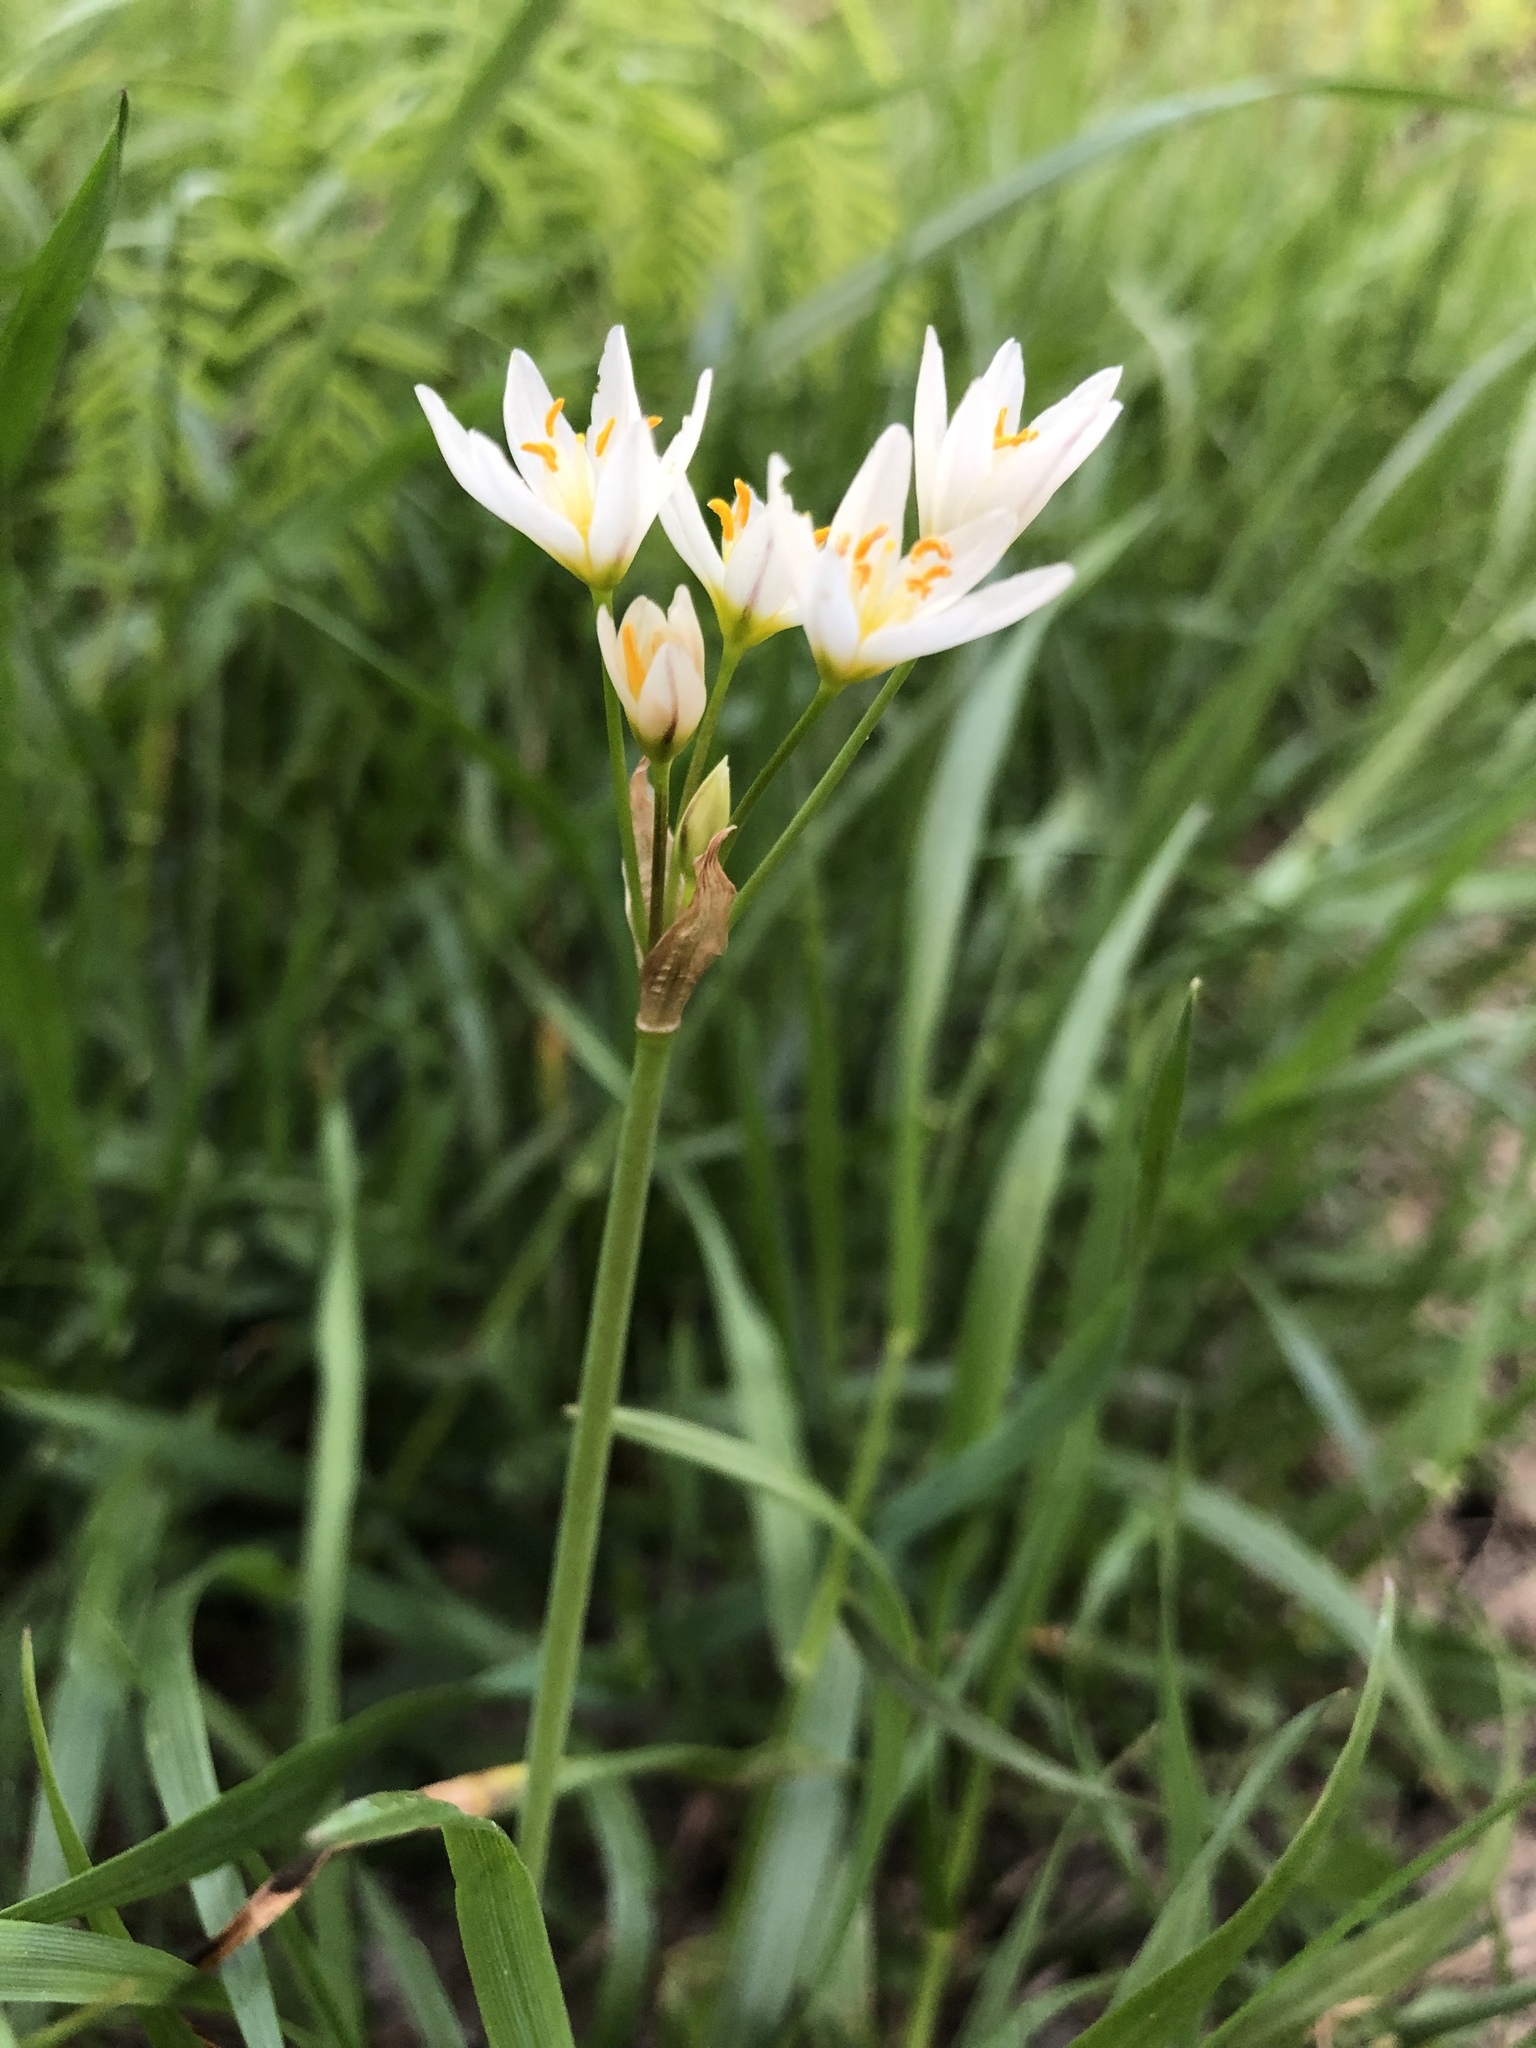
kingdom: Plantae
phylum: Tracheophyta
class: Liliopsida
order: Asparagales
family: Amaryllidaceae
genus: Nothoscordum
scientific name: Nothoscordum bivalve
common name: Crow-poison
